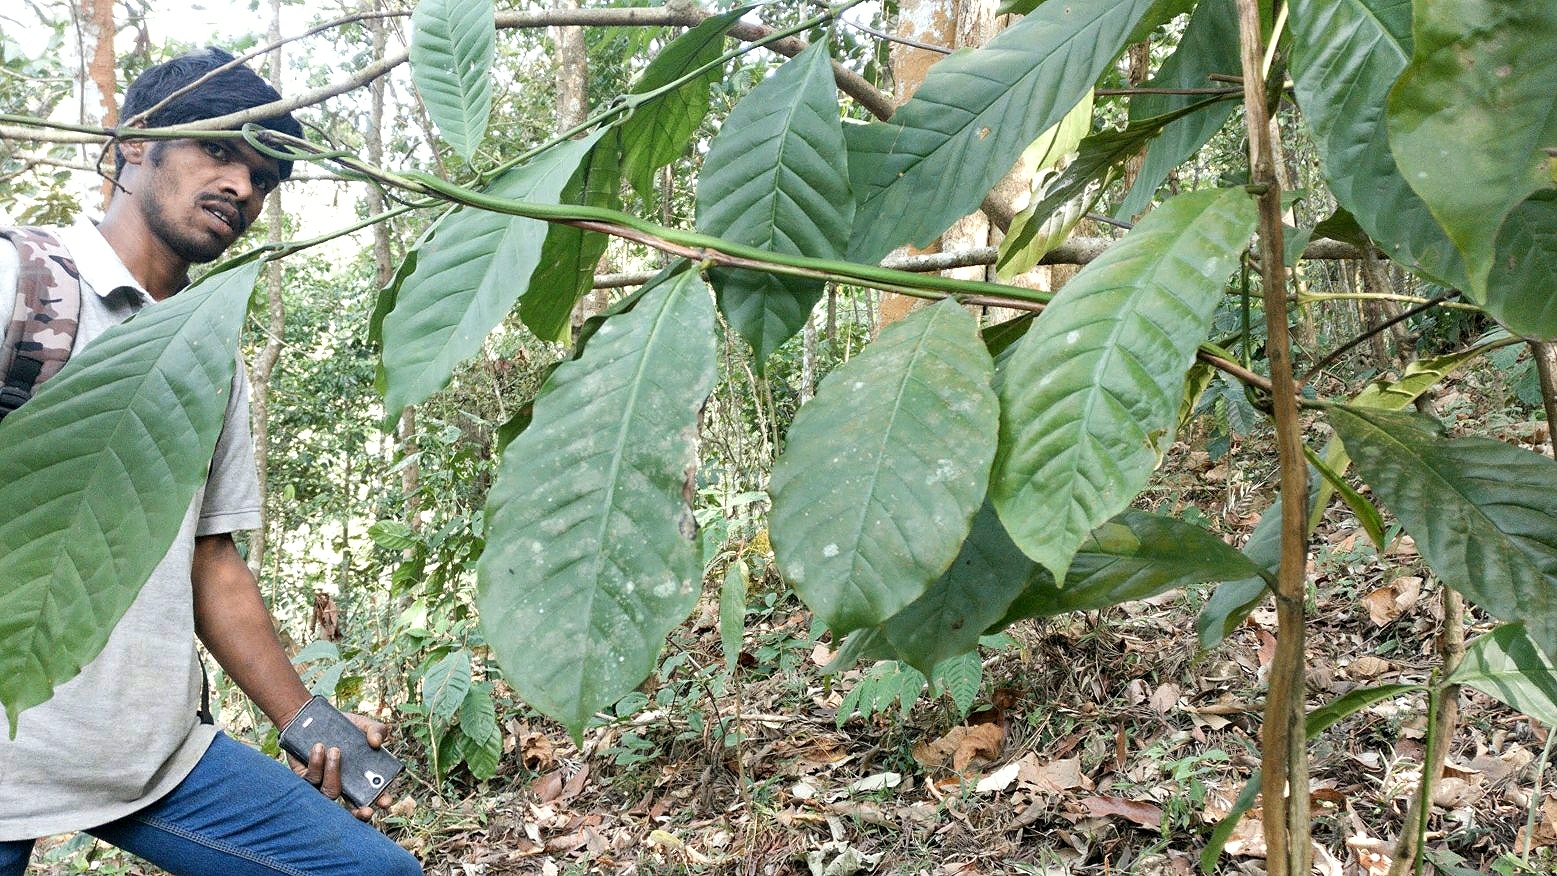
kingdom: Animalia
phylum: Chordata
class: Squamata
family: Colubridae
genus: Ahaetulla
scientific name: Ahaetulla isabellina
